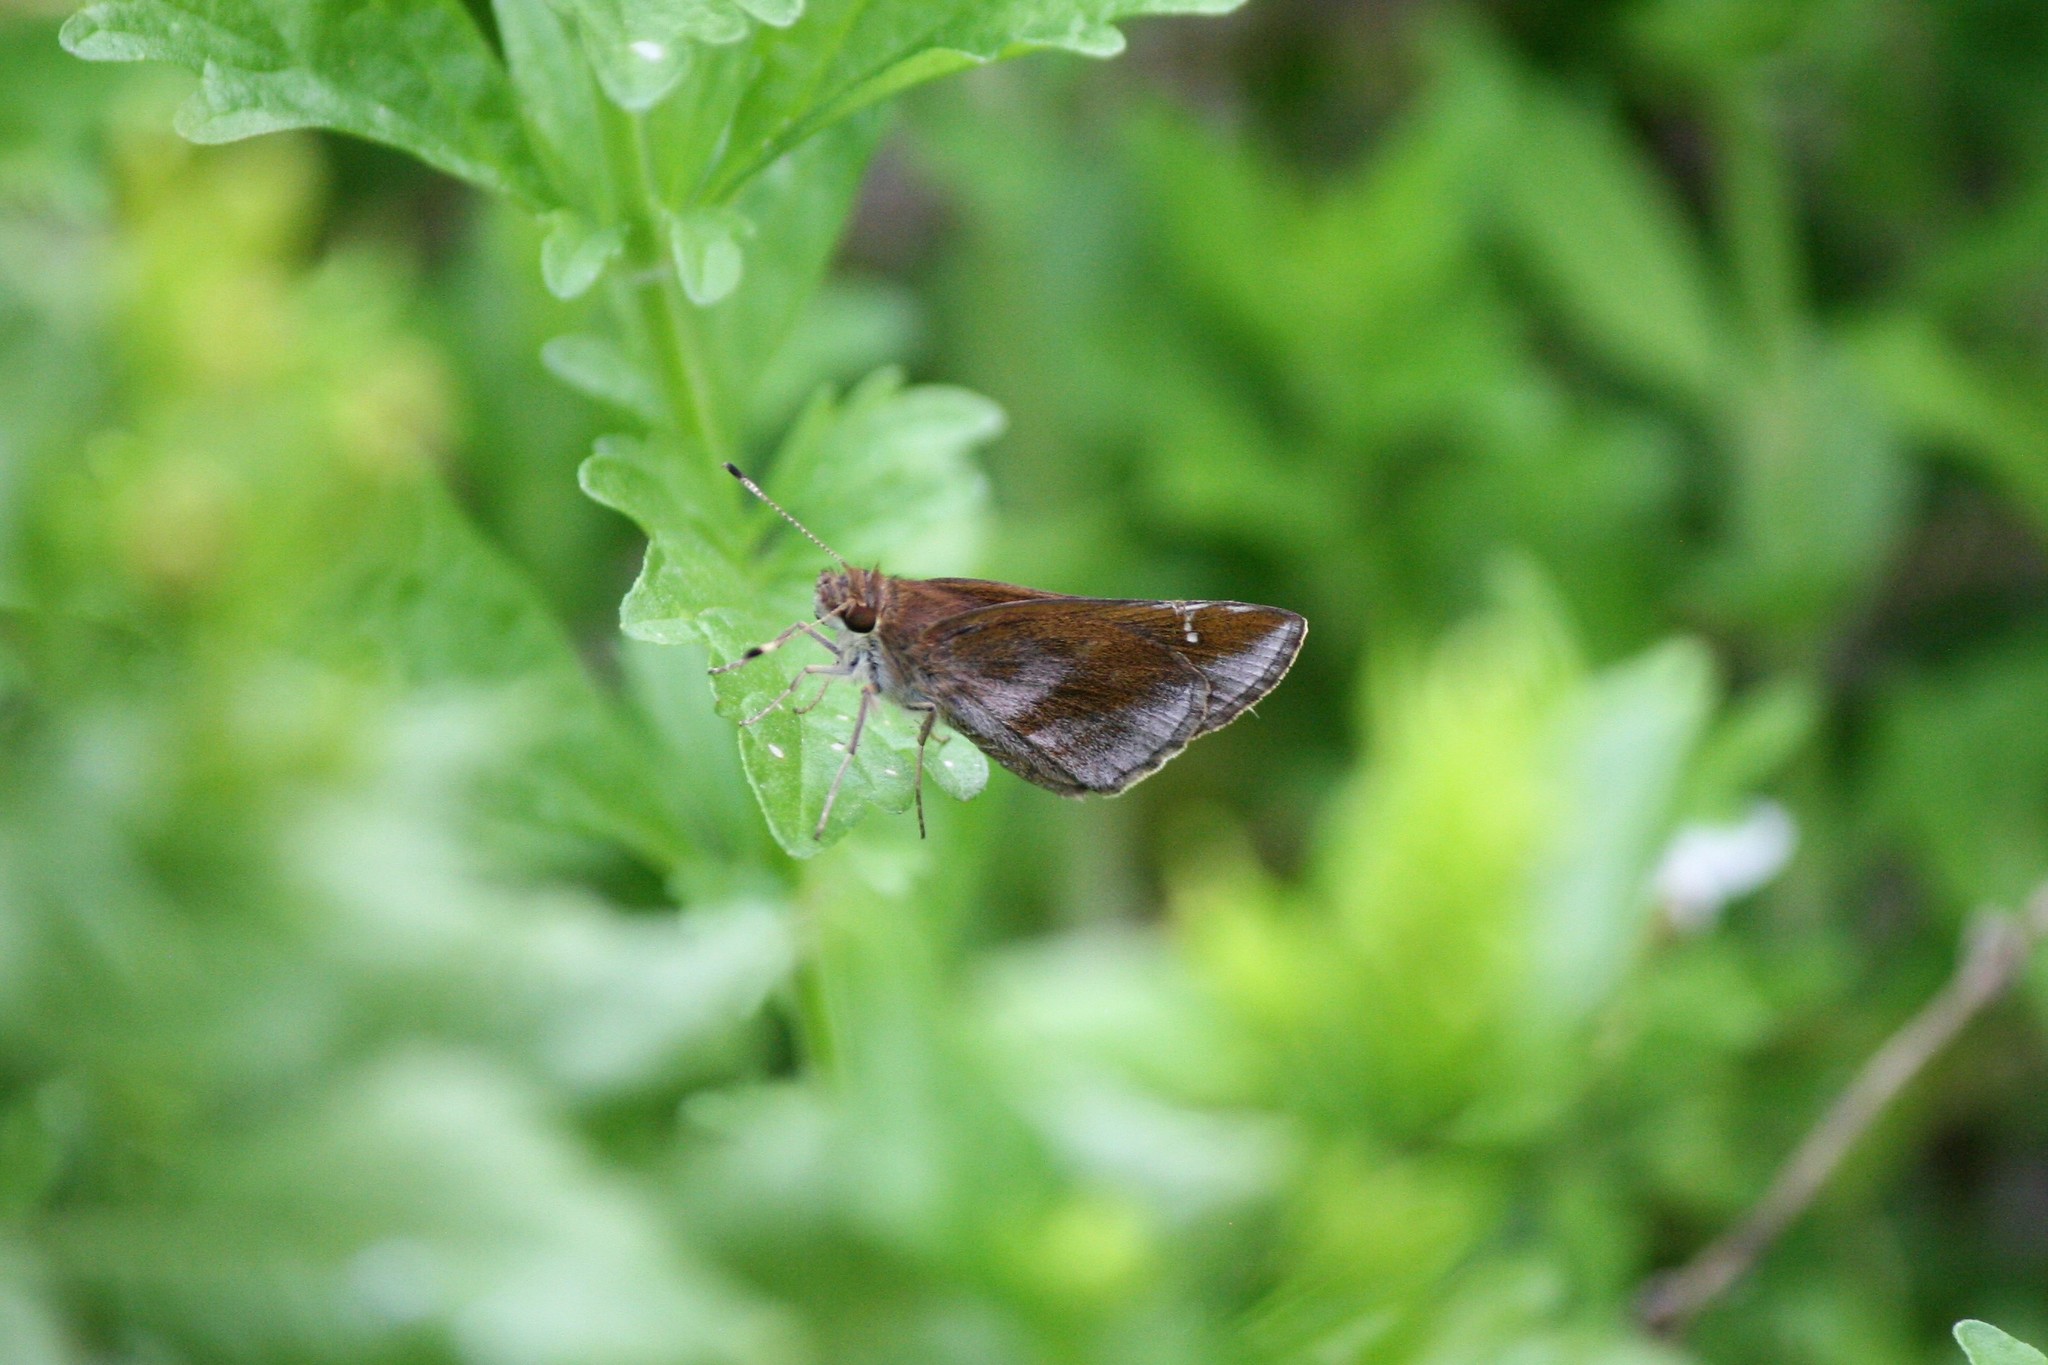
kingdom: Animalia
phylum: Arthropoda
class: Insecta
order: Lepidoptera
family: Hesperiidae
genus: Lerema
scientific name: Lerema accius
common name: Clouded skipper
